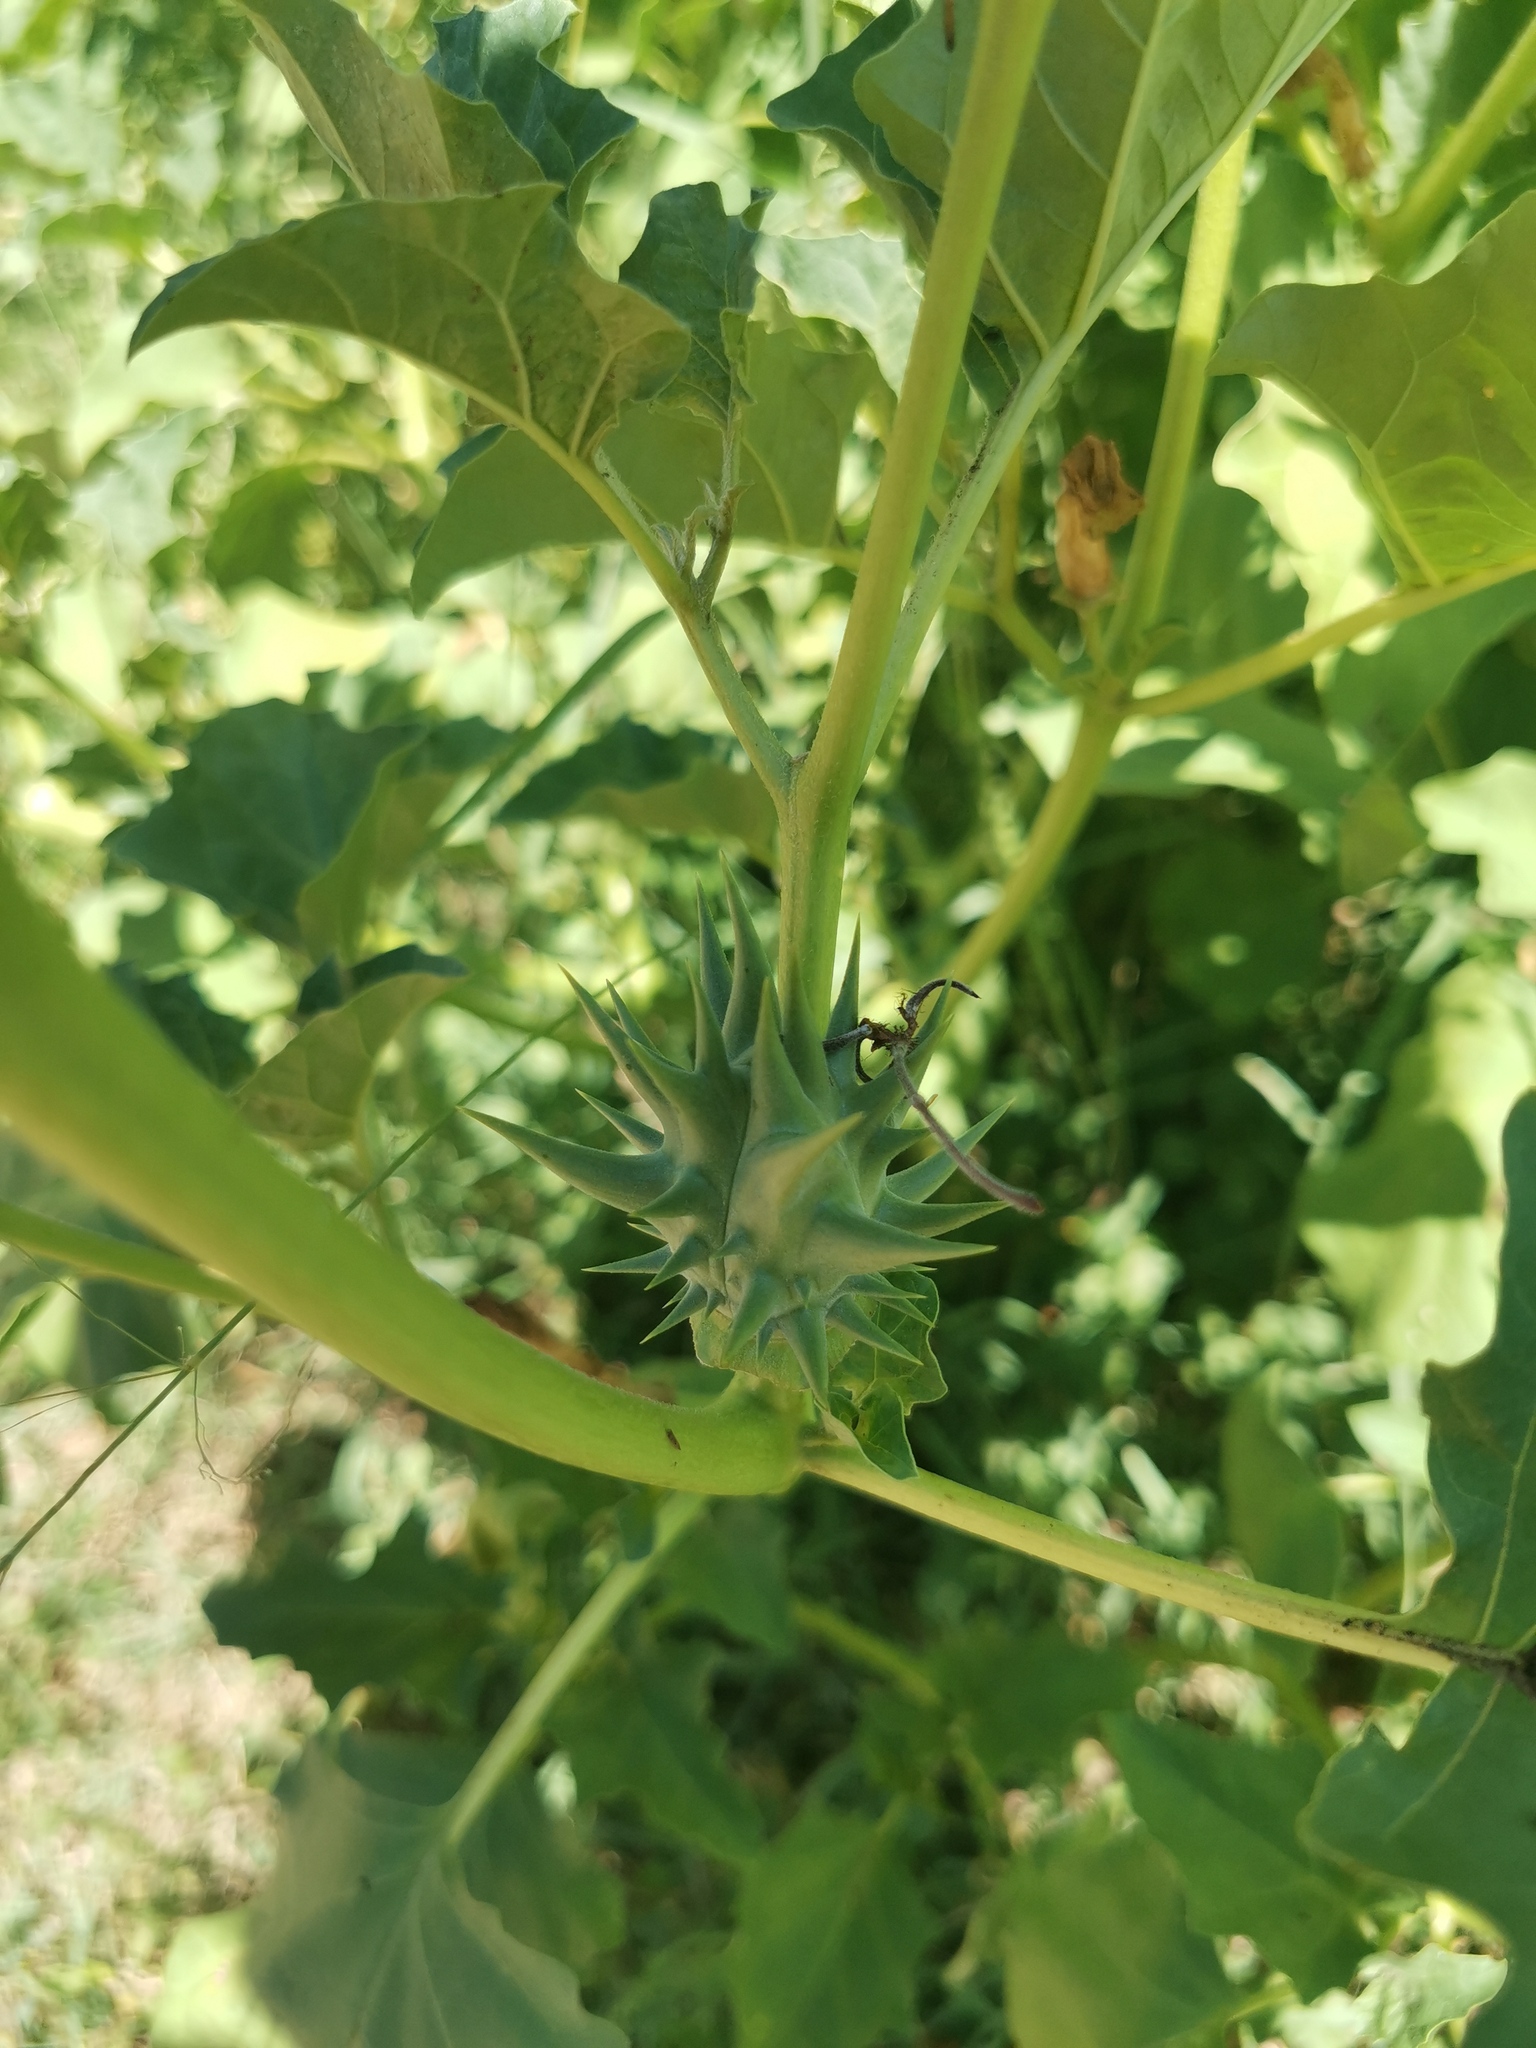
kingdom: Plantae
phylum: Tracheophyta
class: Magnoliopsida
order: Solanales
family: Solanaceae
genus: Datura
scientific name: Datura ferox
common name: Angel's-trumpets
